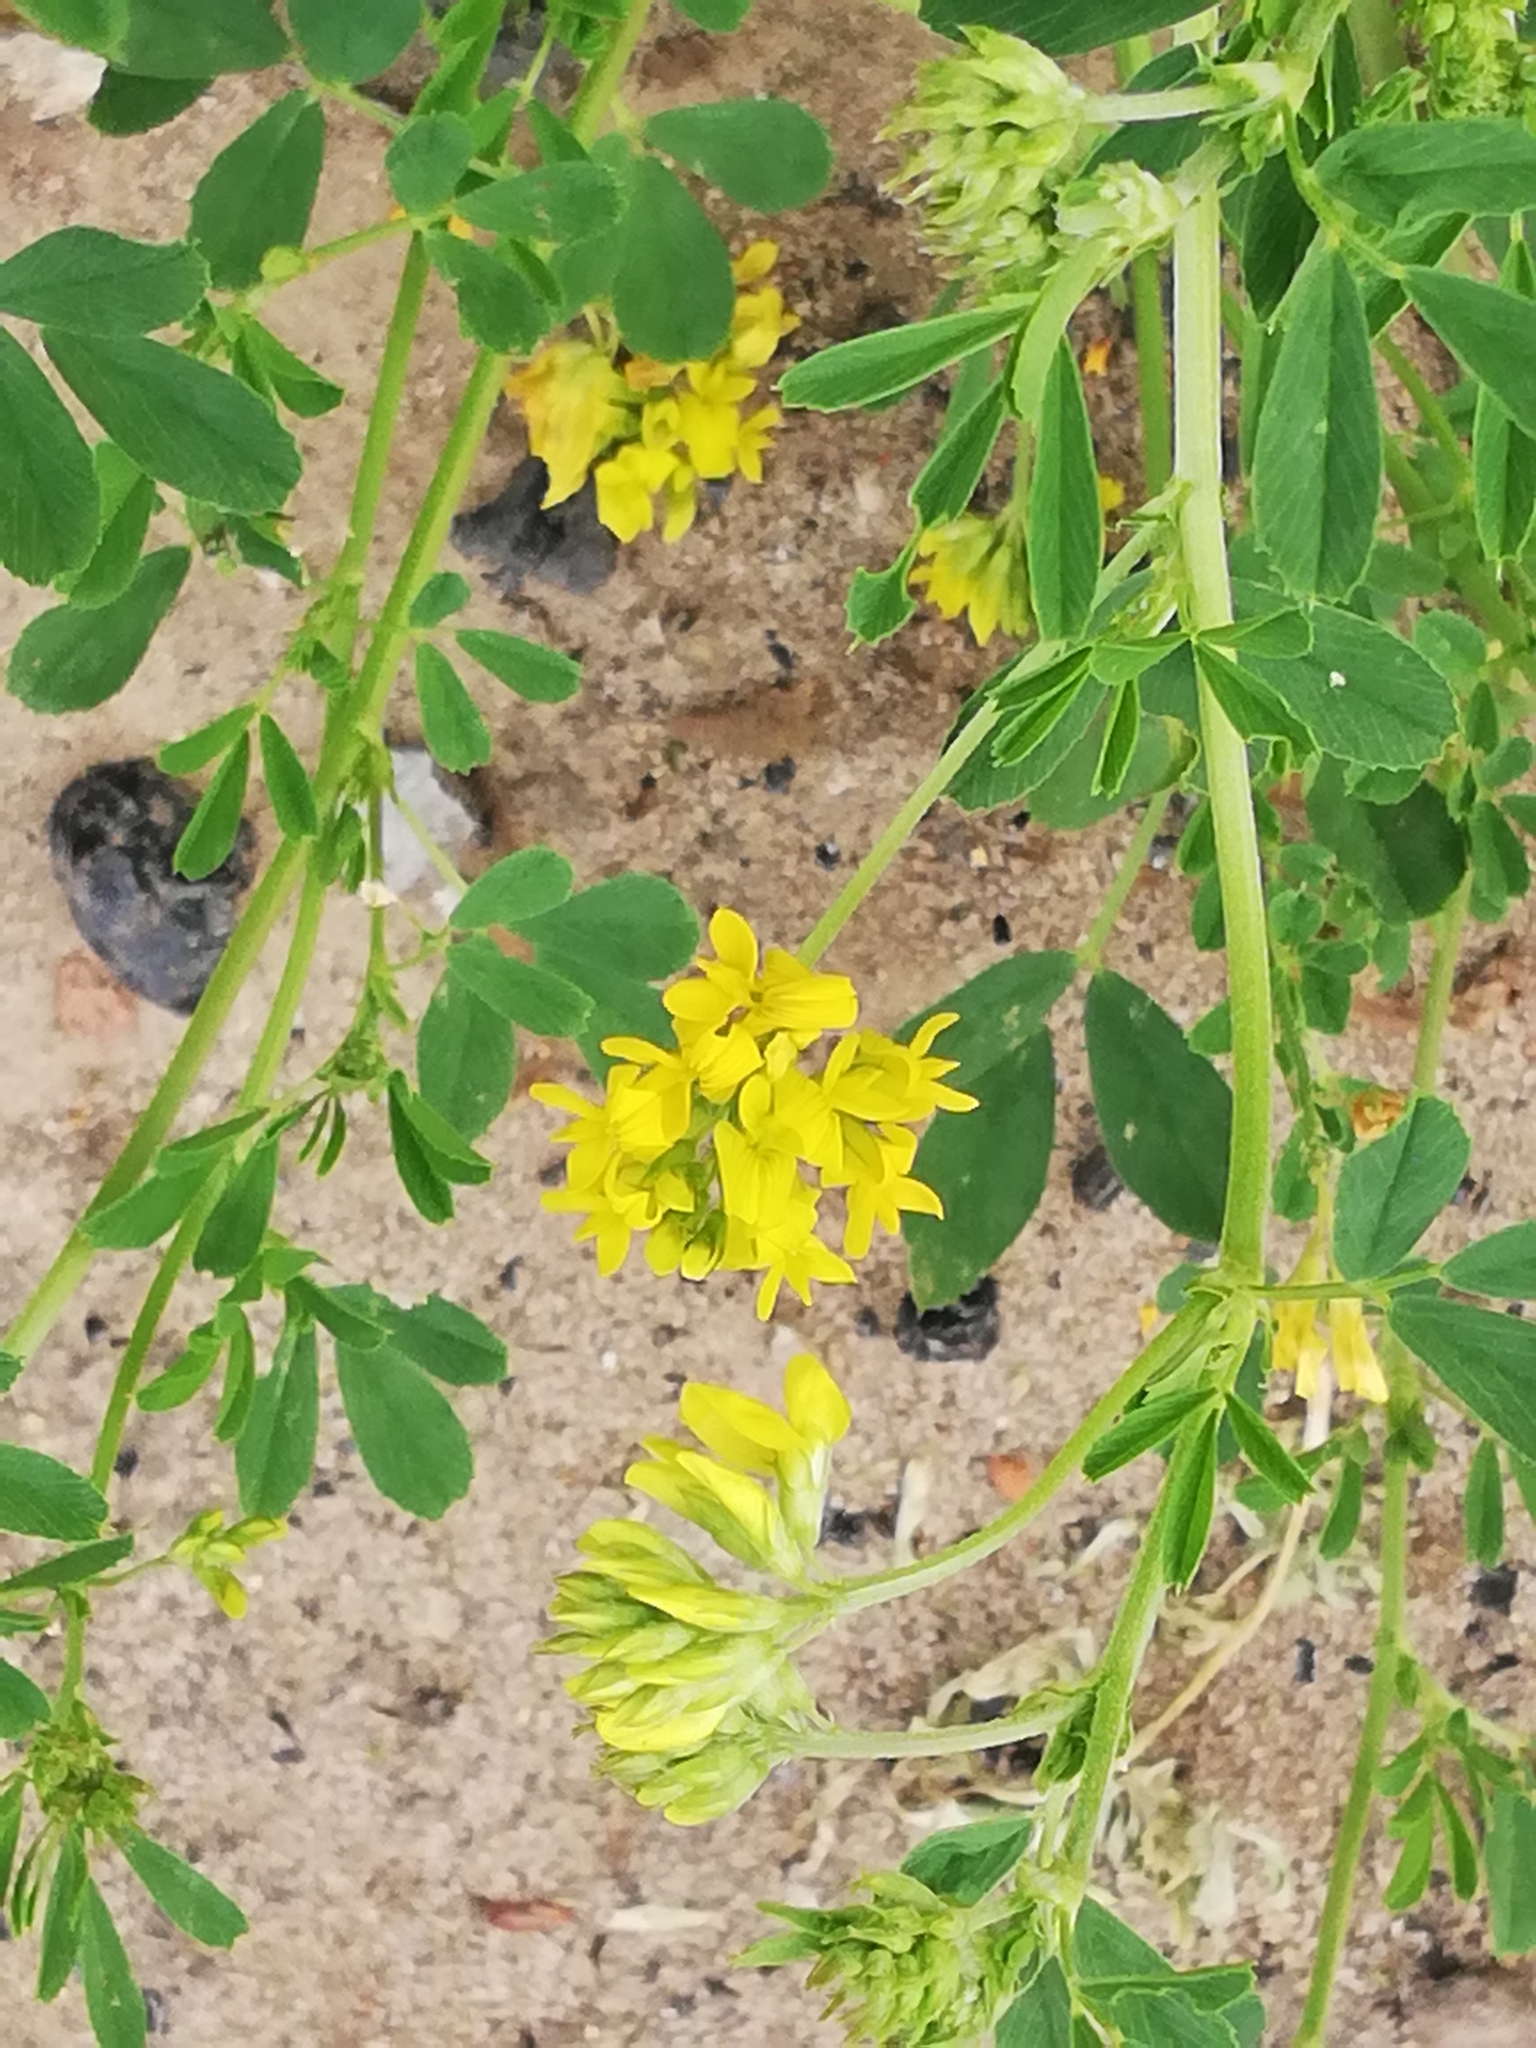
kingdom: Plantae
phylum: Tracheophyta
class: Magnoliopsida
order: Fabales
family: Fabaceae
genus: Medicago
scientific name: Medicago falcata
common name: Sickle medick
